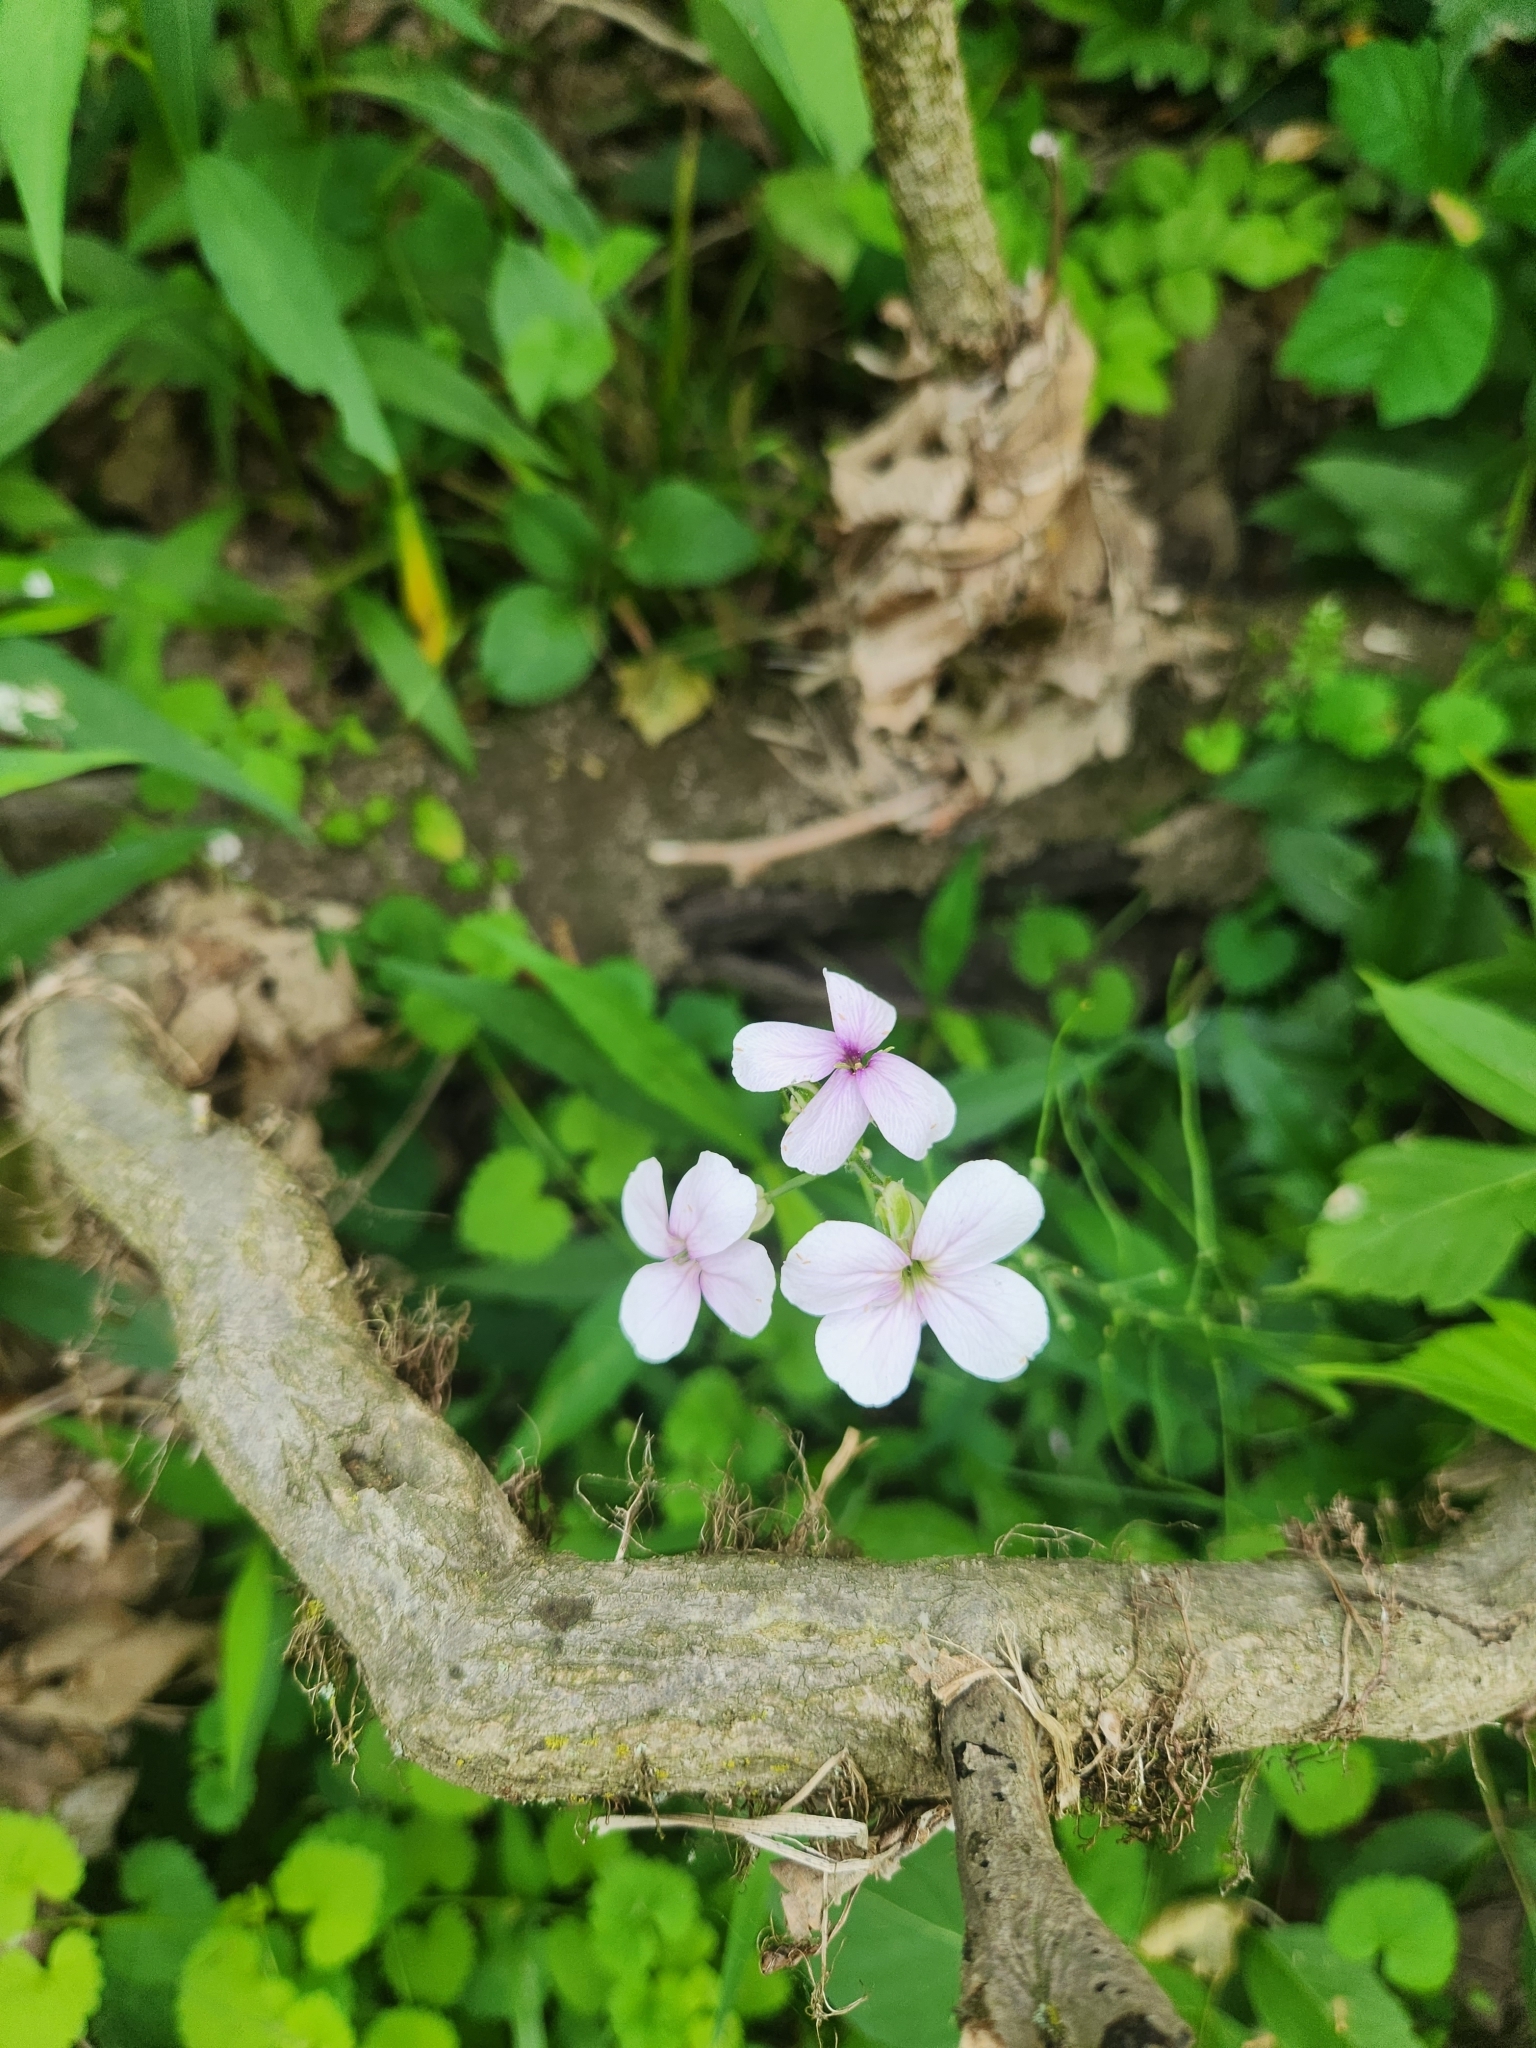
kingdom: Plantae
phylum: Tracheophyta
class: Magnoliopsida
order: Brassicales
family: Brassicaceae
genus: Hesperis
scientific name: Hesperis matronalis
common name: Dame's-violet
